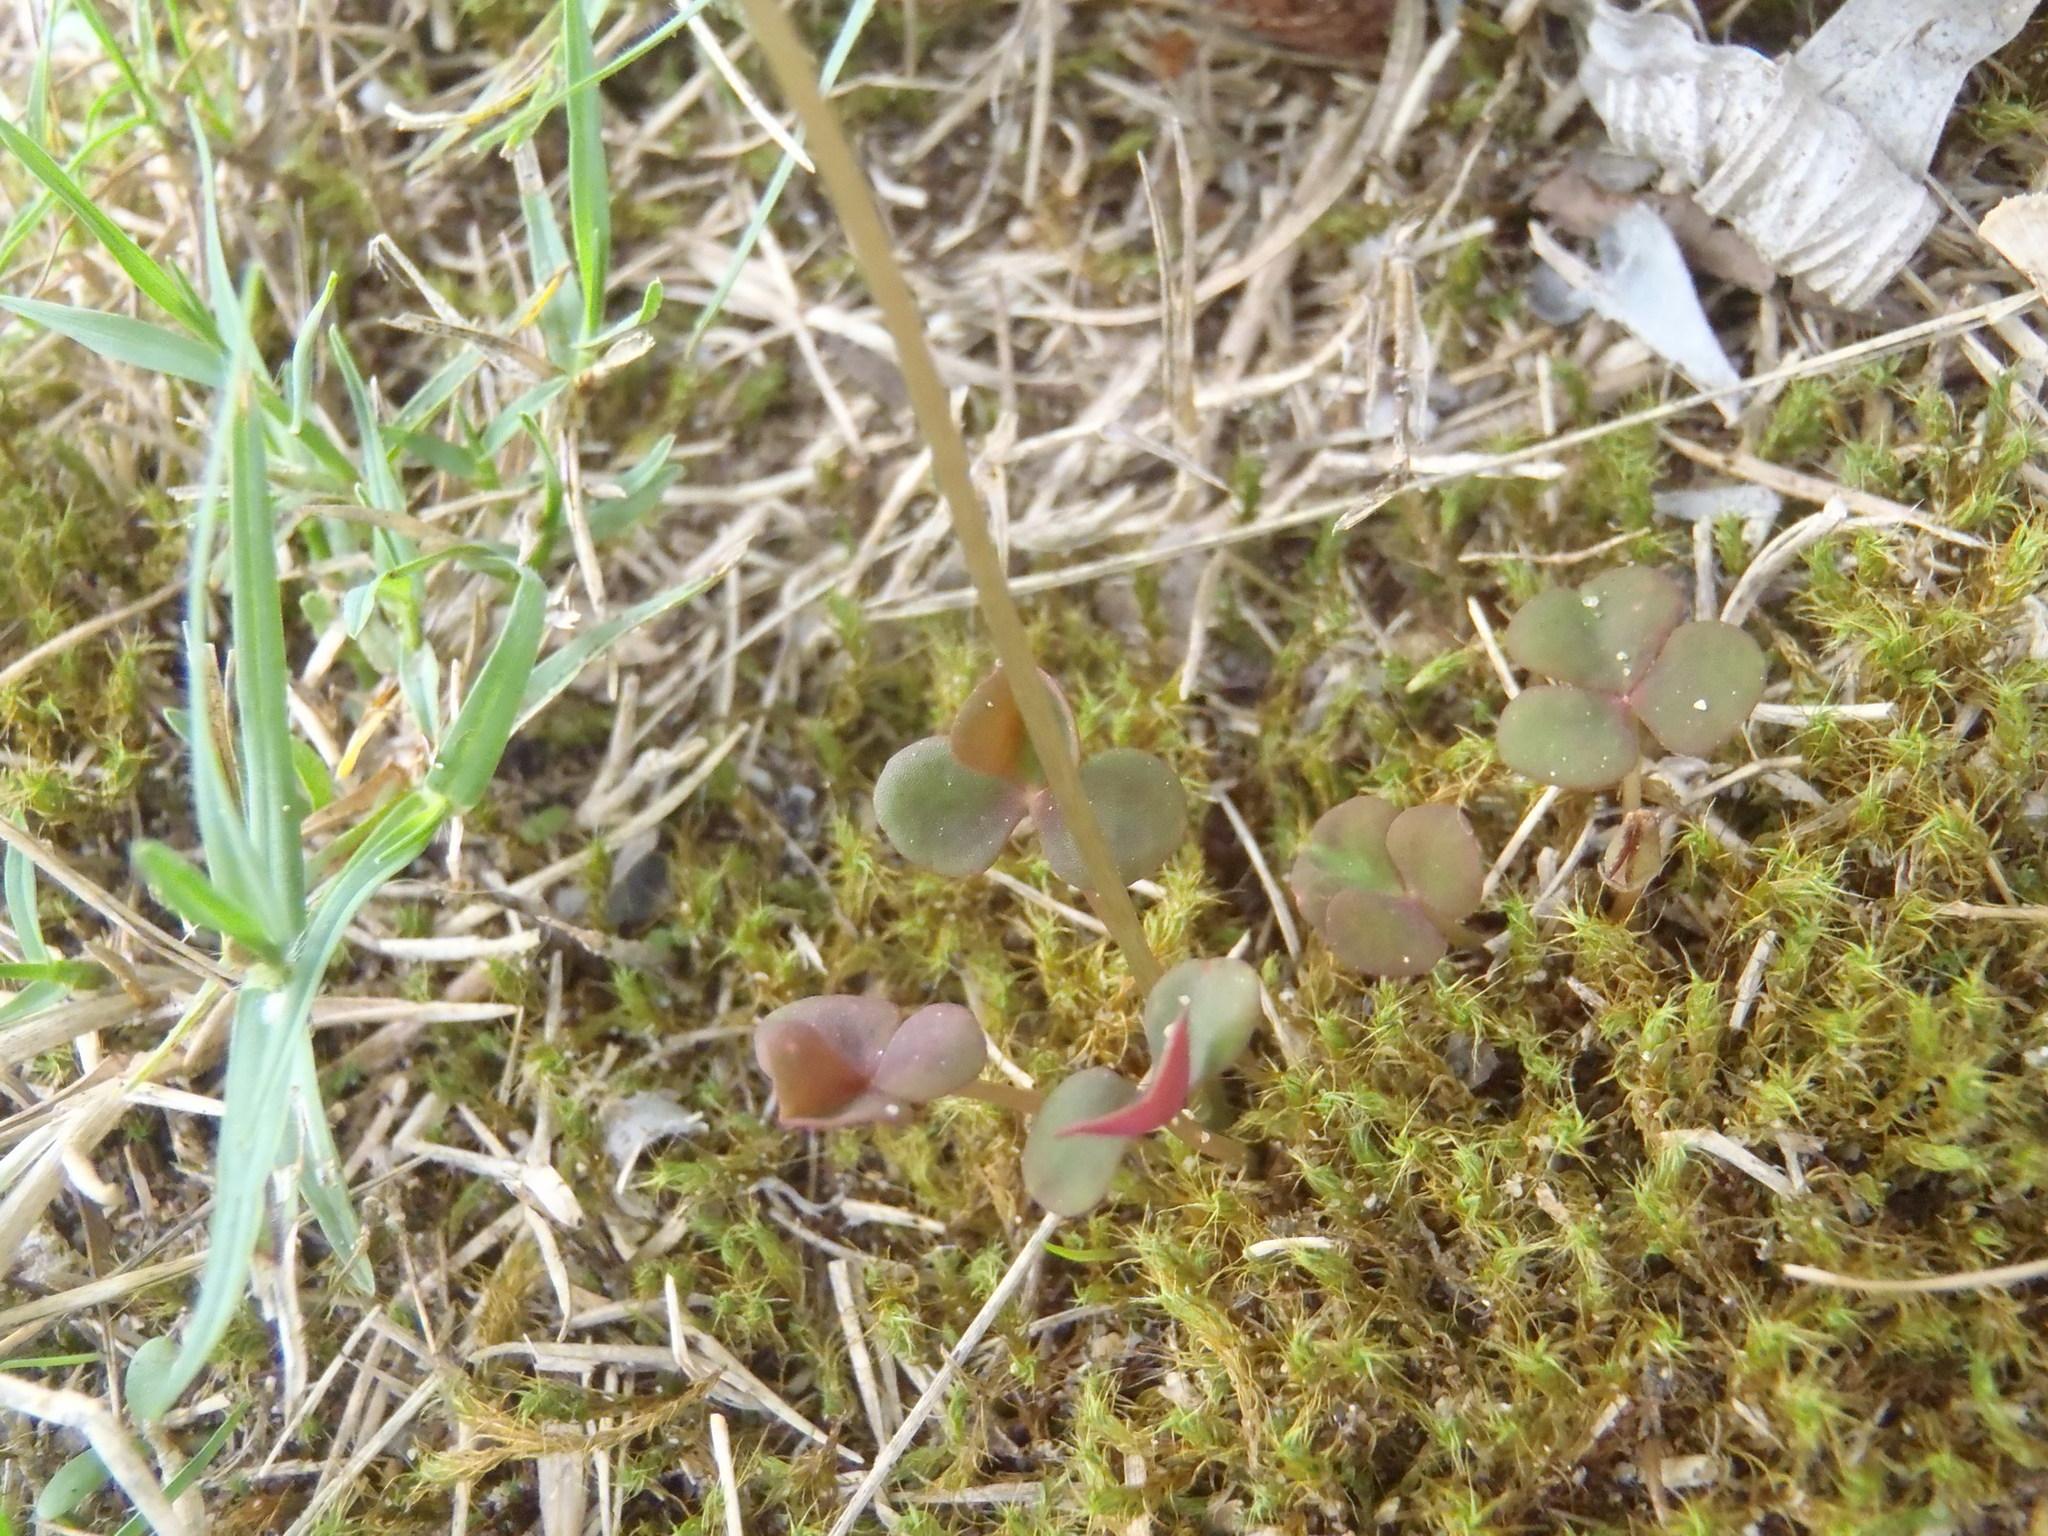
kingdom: Plantae
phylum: Tracheophyta
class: Magnoliopsida
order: Oxalidales
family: Oxalidaceae
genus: Oxalis
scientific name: Oxalis depressa
